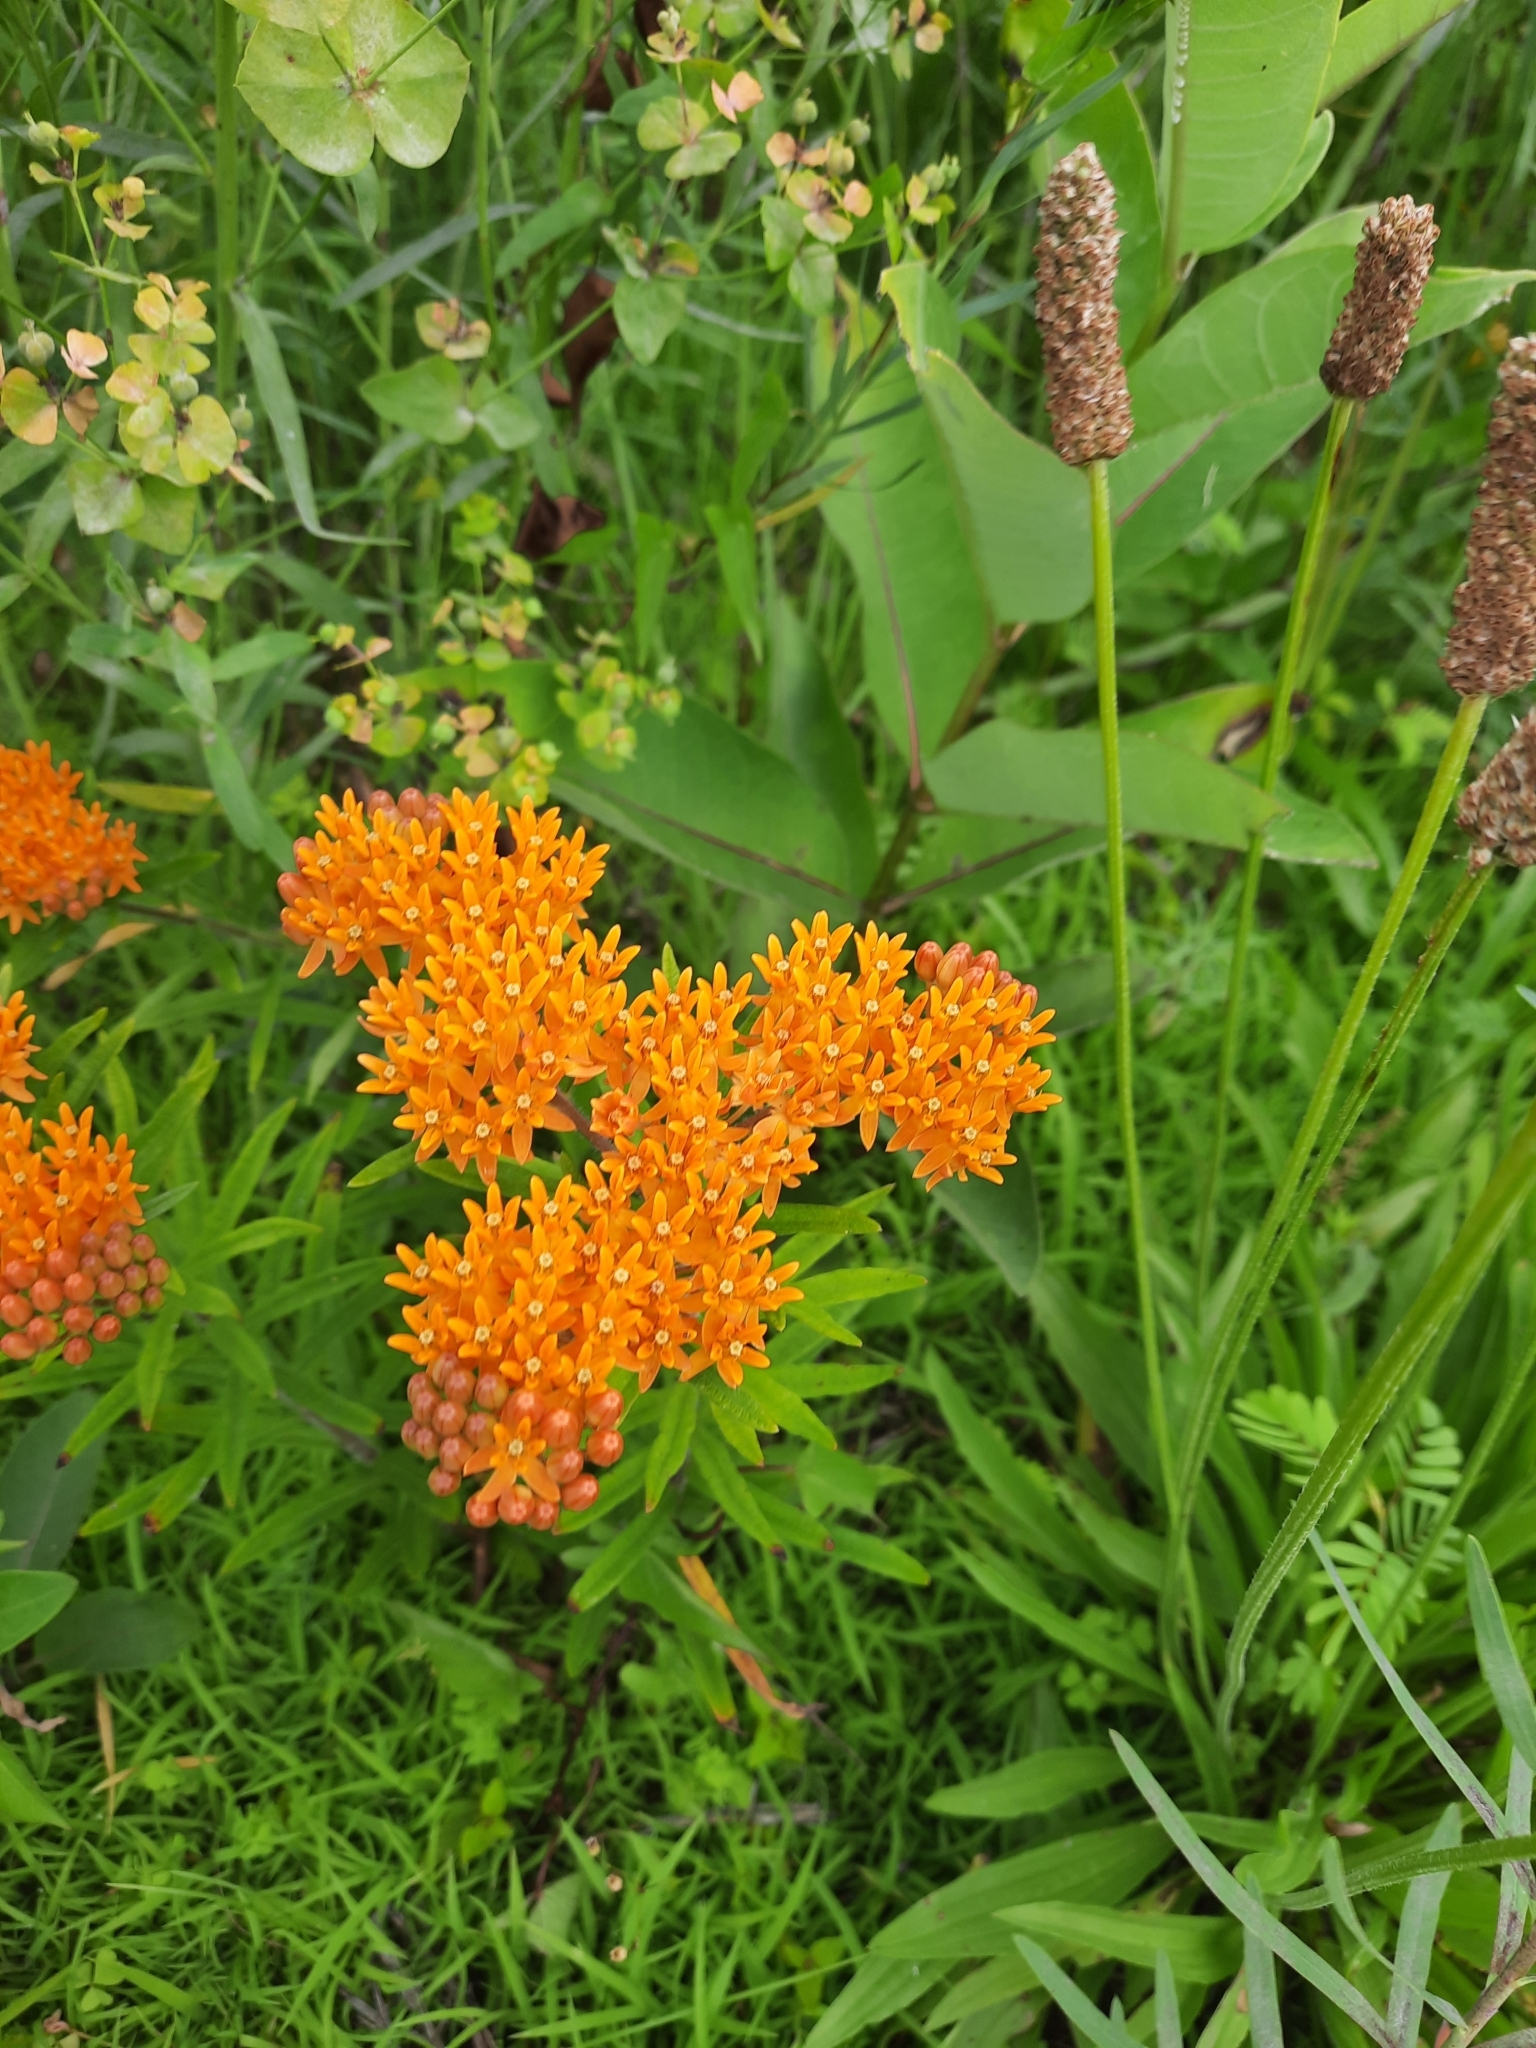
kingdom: Plantae
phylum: Tracheophyta
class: Magnoliopsida
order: Gentianales
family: Apocynaceae
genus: Asclepias
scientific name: Asclepias tuberosa
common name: Butterfly milkweed
